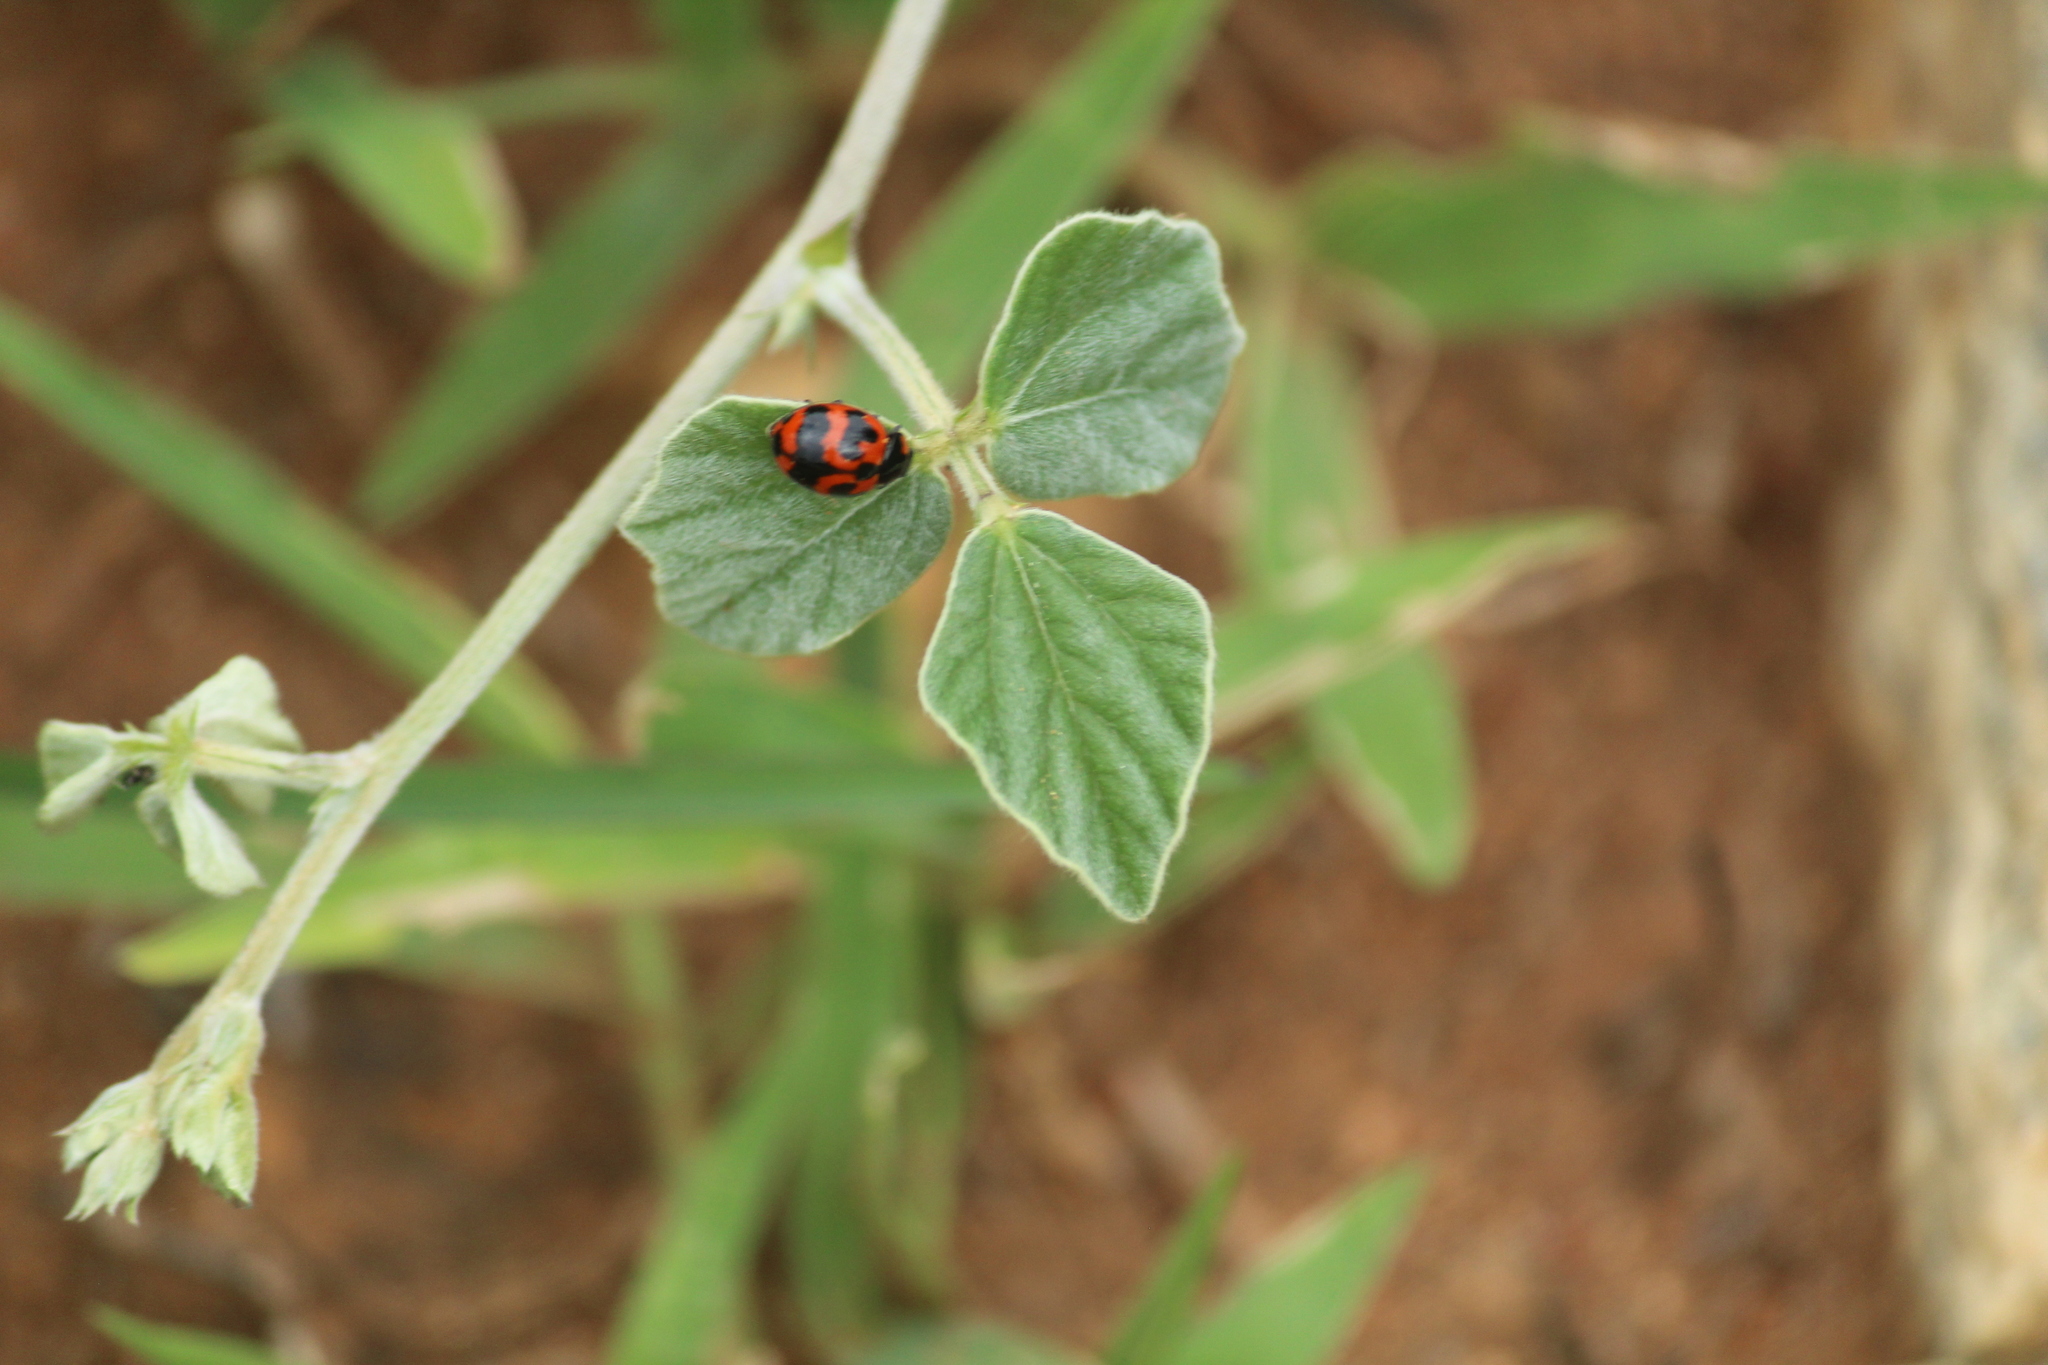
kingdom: Animalia
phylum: Arthropoda
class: Insecta
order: Coleoptera
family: Coccinellidae
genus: Coccinella
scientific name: Coccinella transversalis
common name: Transverse lady beetle
